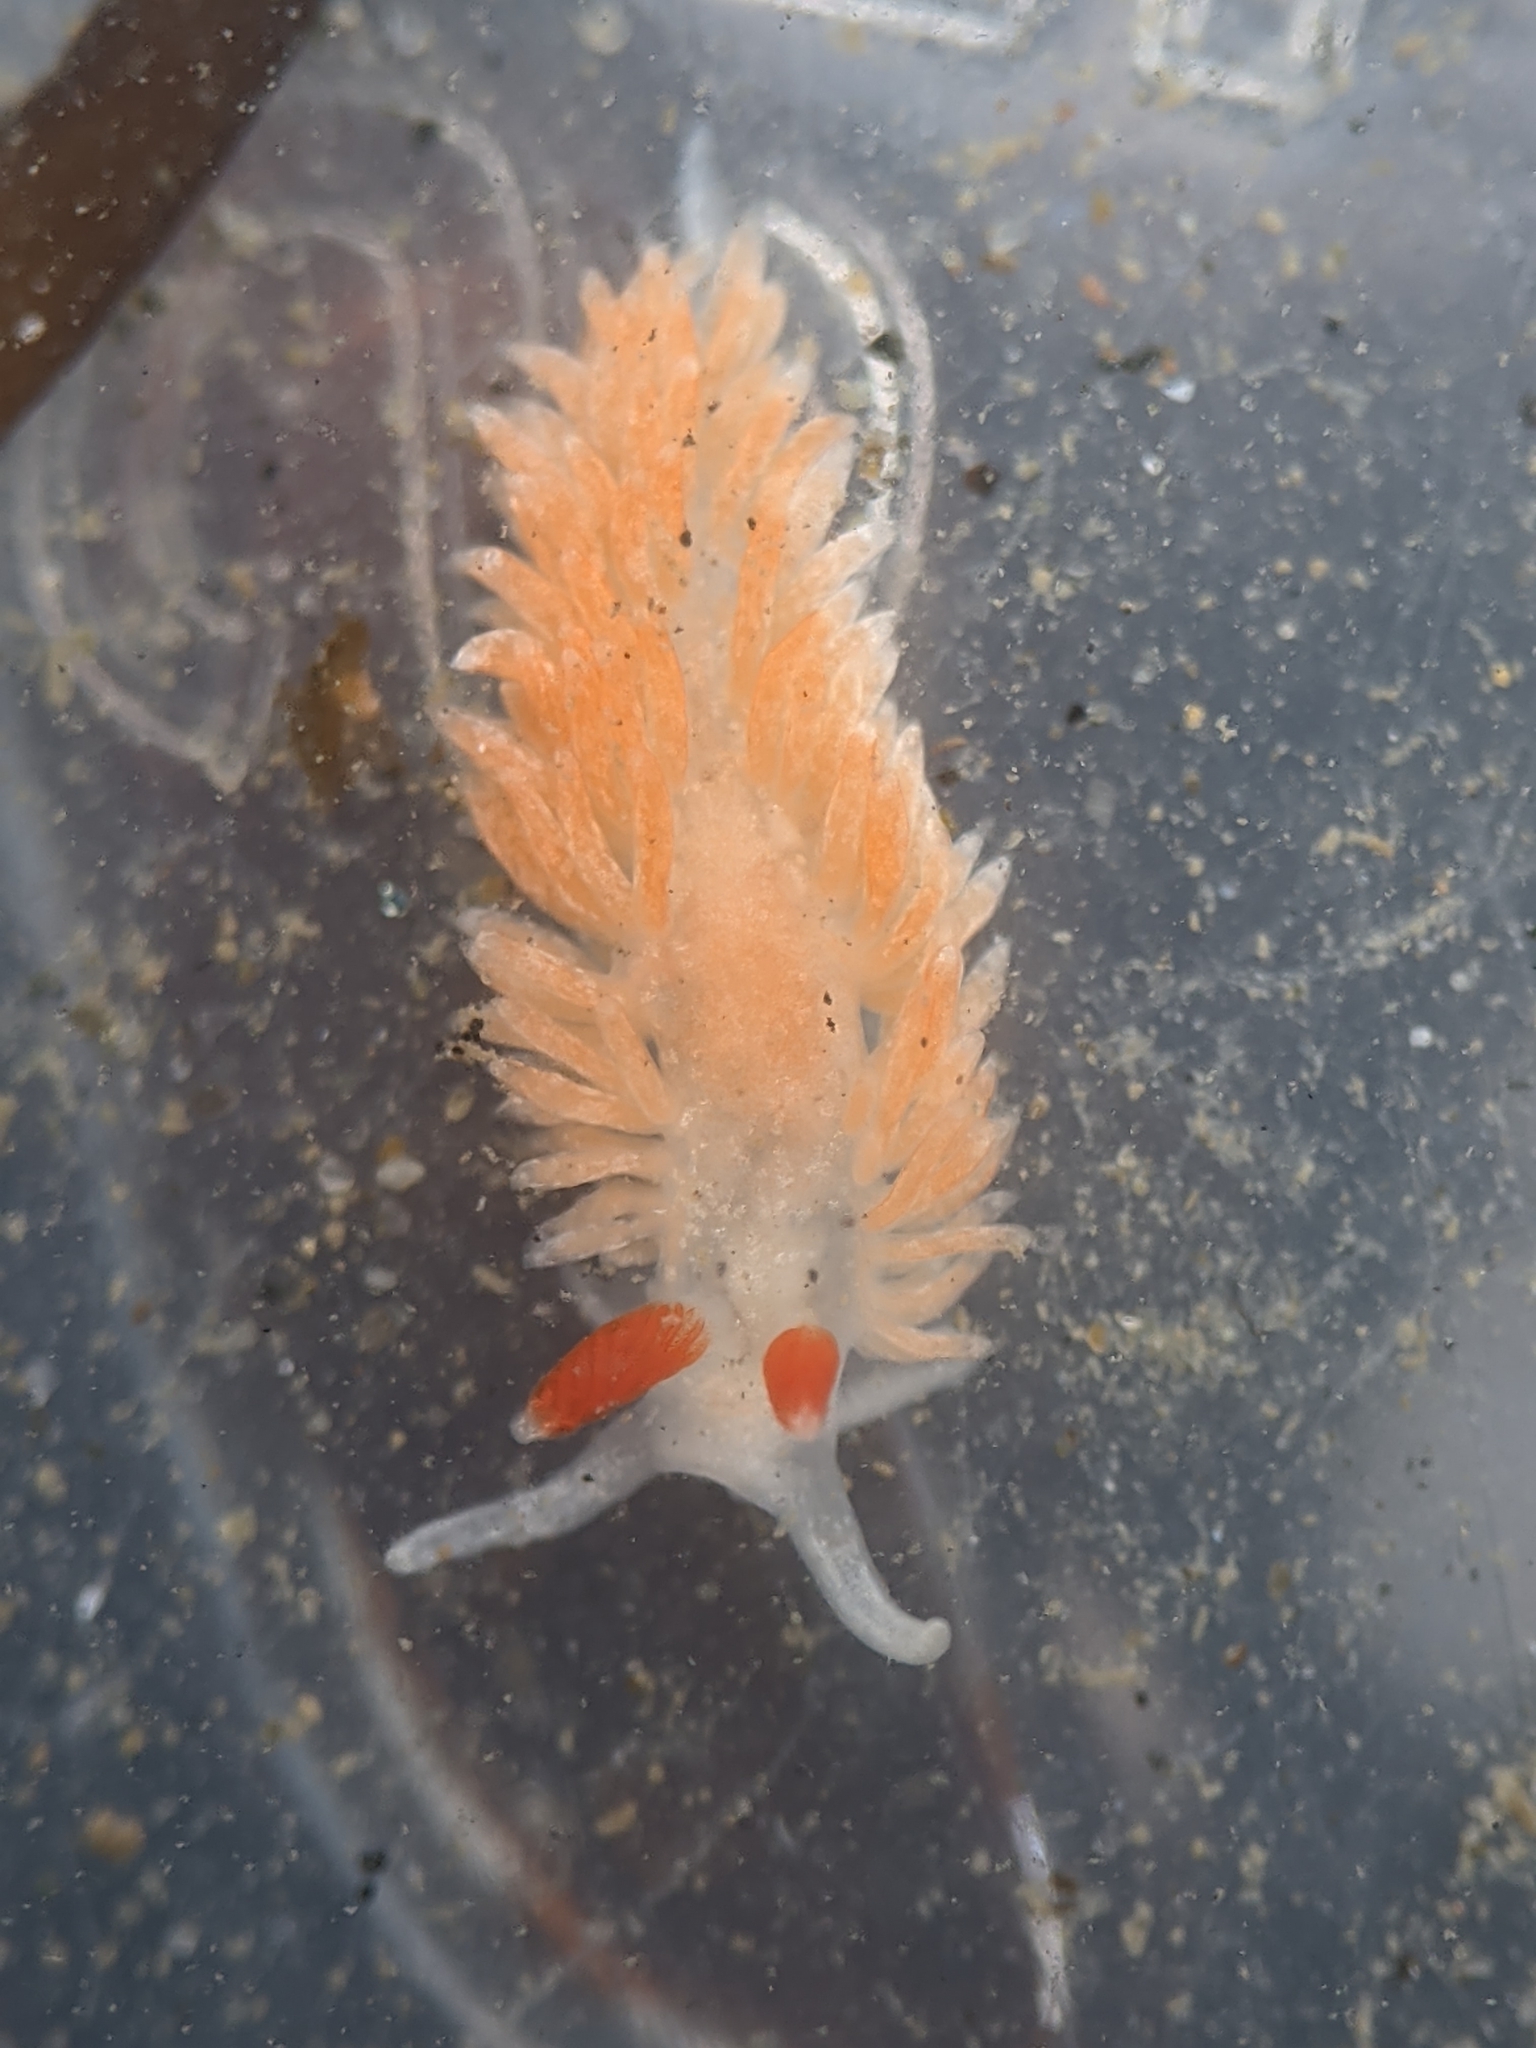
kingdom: Animalia
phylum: Mollusca
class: Gastropoda
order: Nudibranchia
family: Aeolidiidae
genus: Anteaeolidiella
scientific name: Anteaeolidiella oliviae
